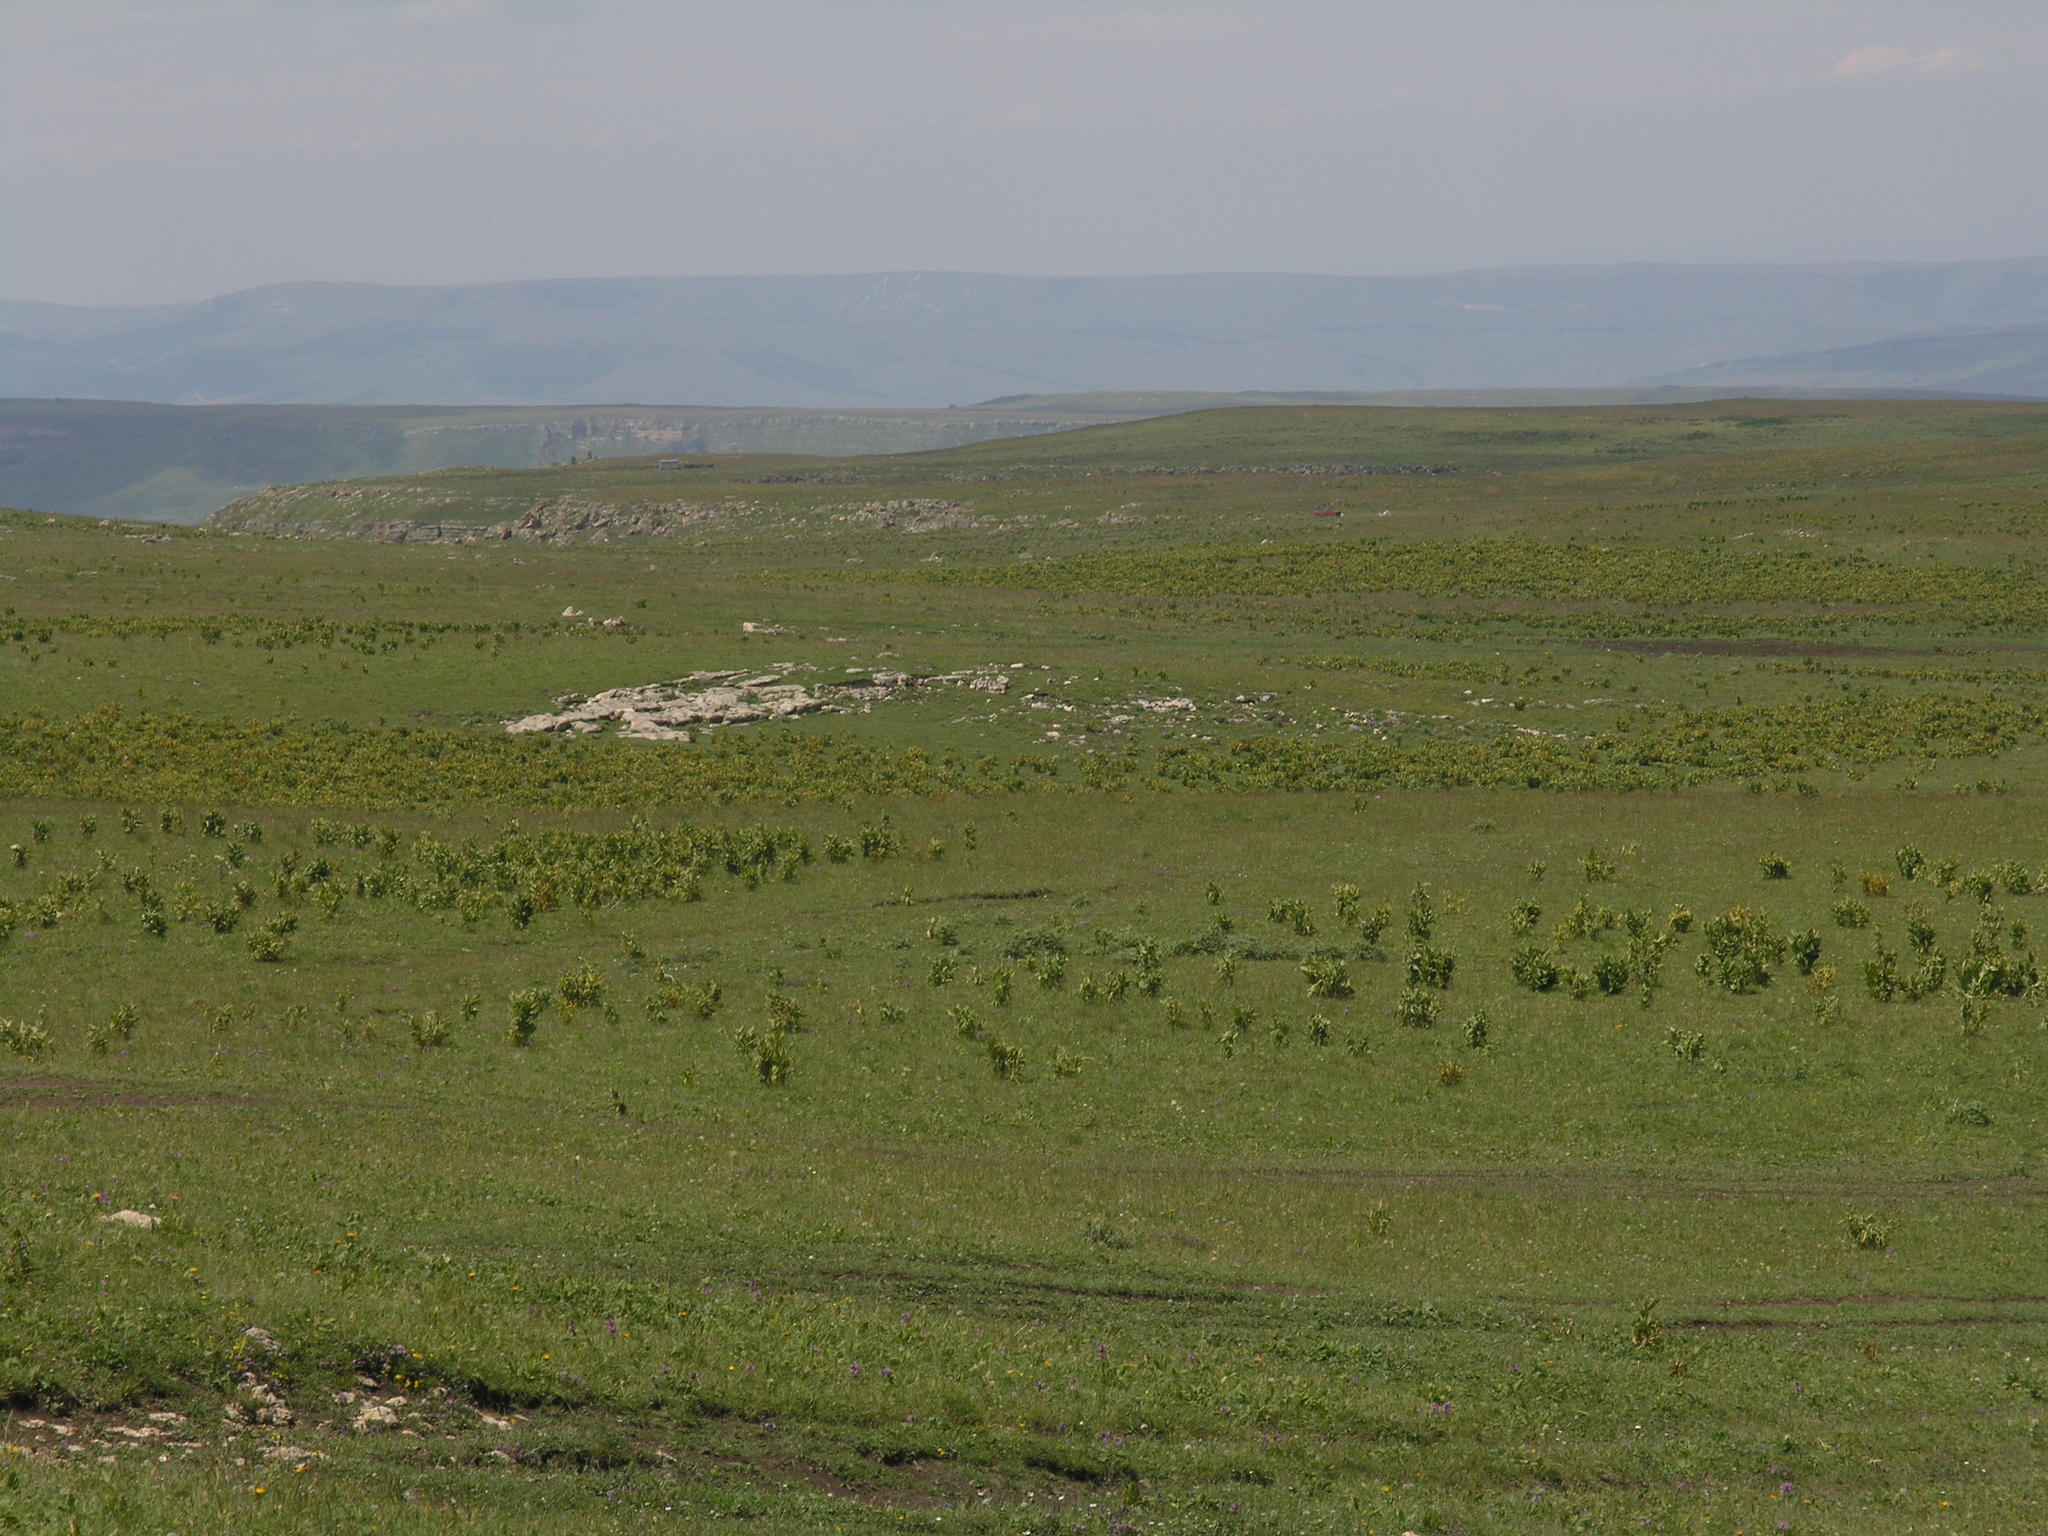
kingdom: Plantae
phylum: Tracheophyta
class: Liliopsida
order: Liliales
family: Melanthiaceae
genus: Veratrum
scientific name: Veratrum lobelianum
